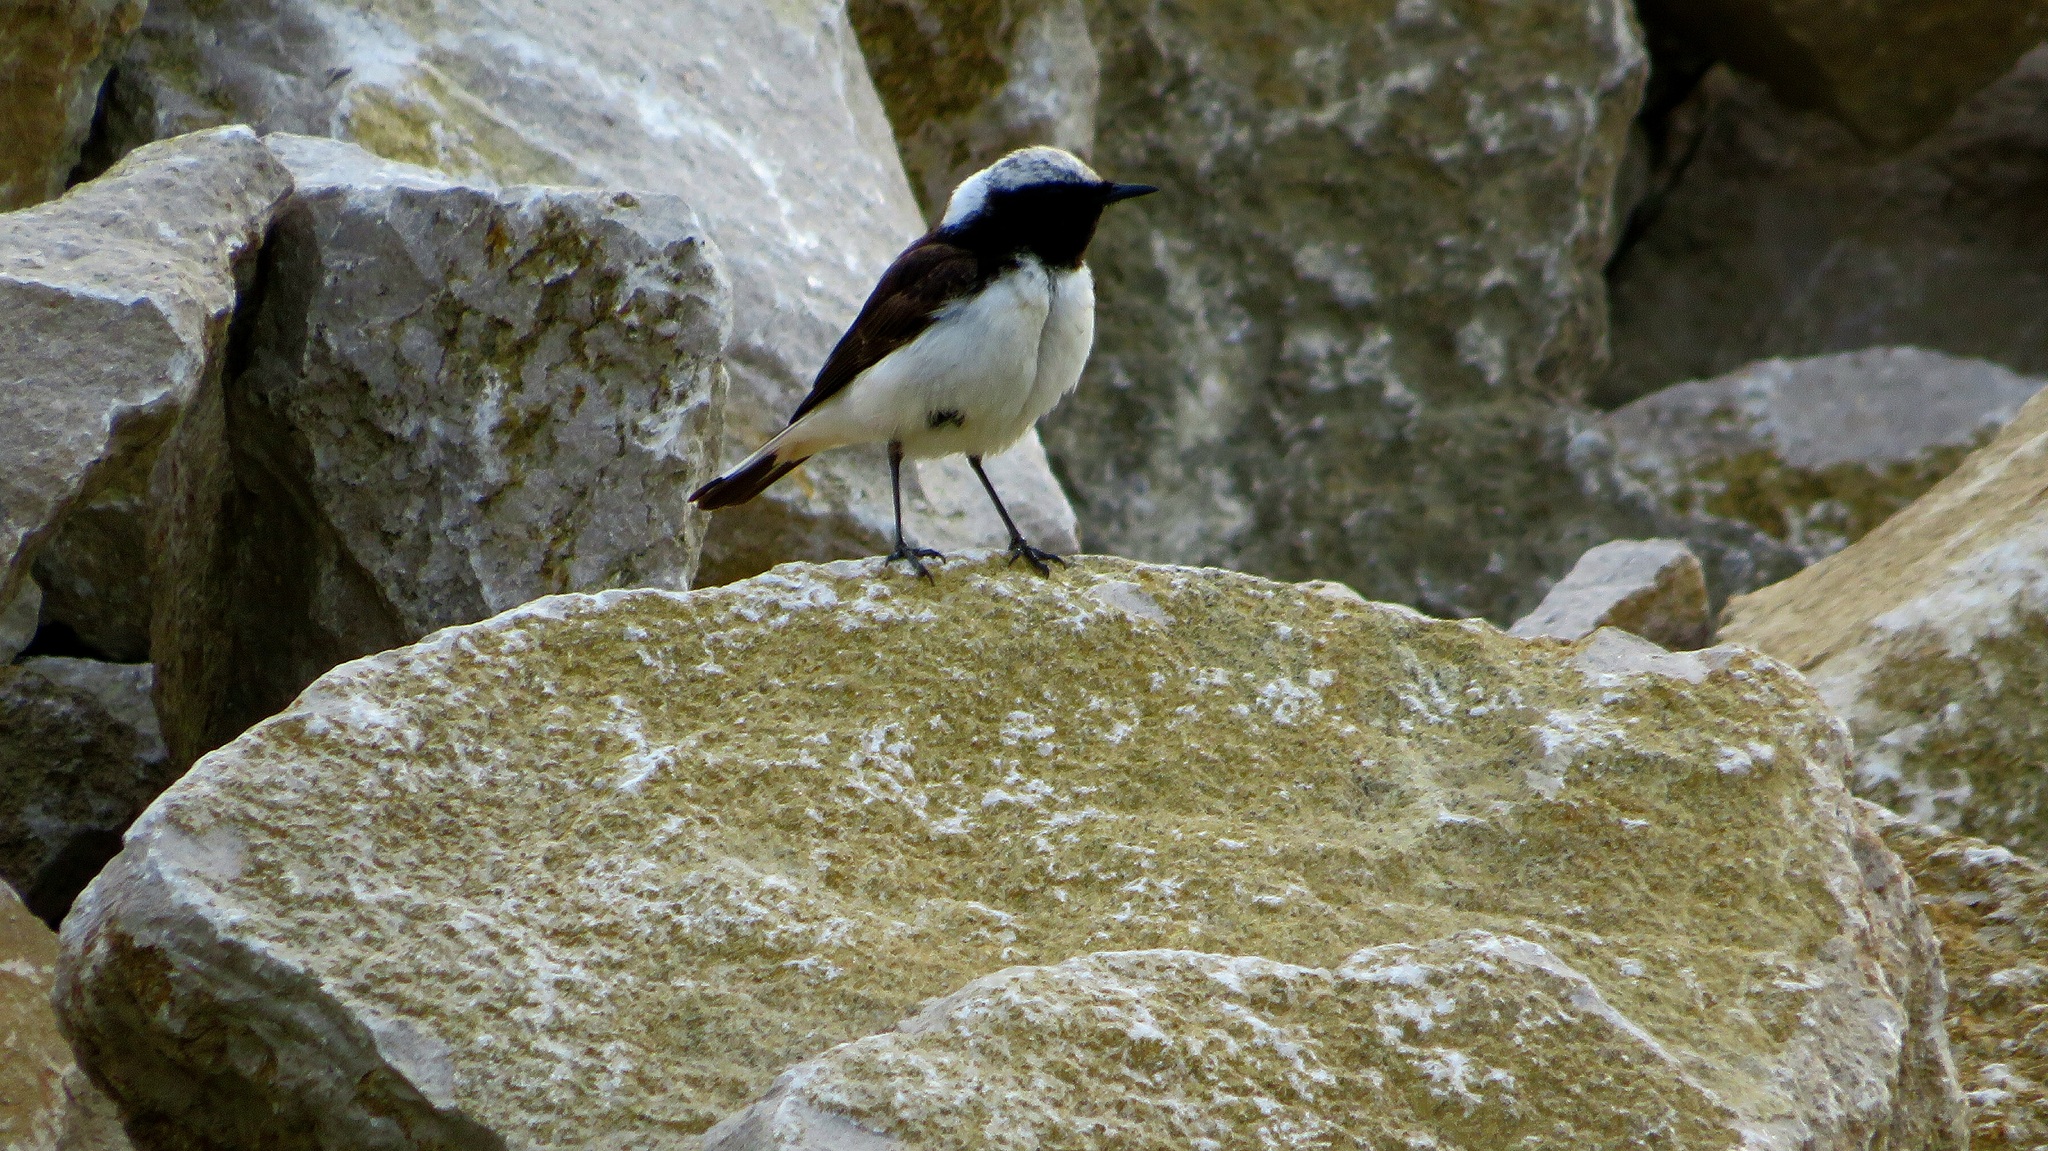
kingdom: Animalia
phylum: Chordata
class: Aves
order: Passeriformes
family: Muscicapidae
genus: Oenanthe
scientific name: Oenanthe pleschanka
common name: Pied wheatear
